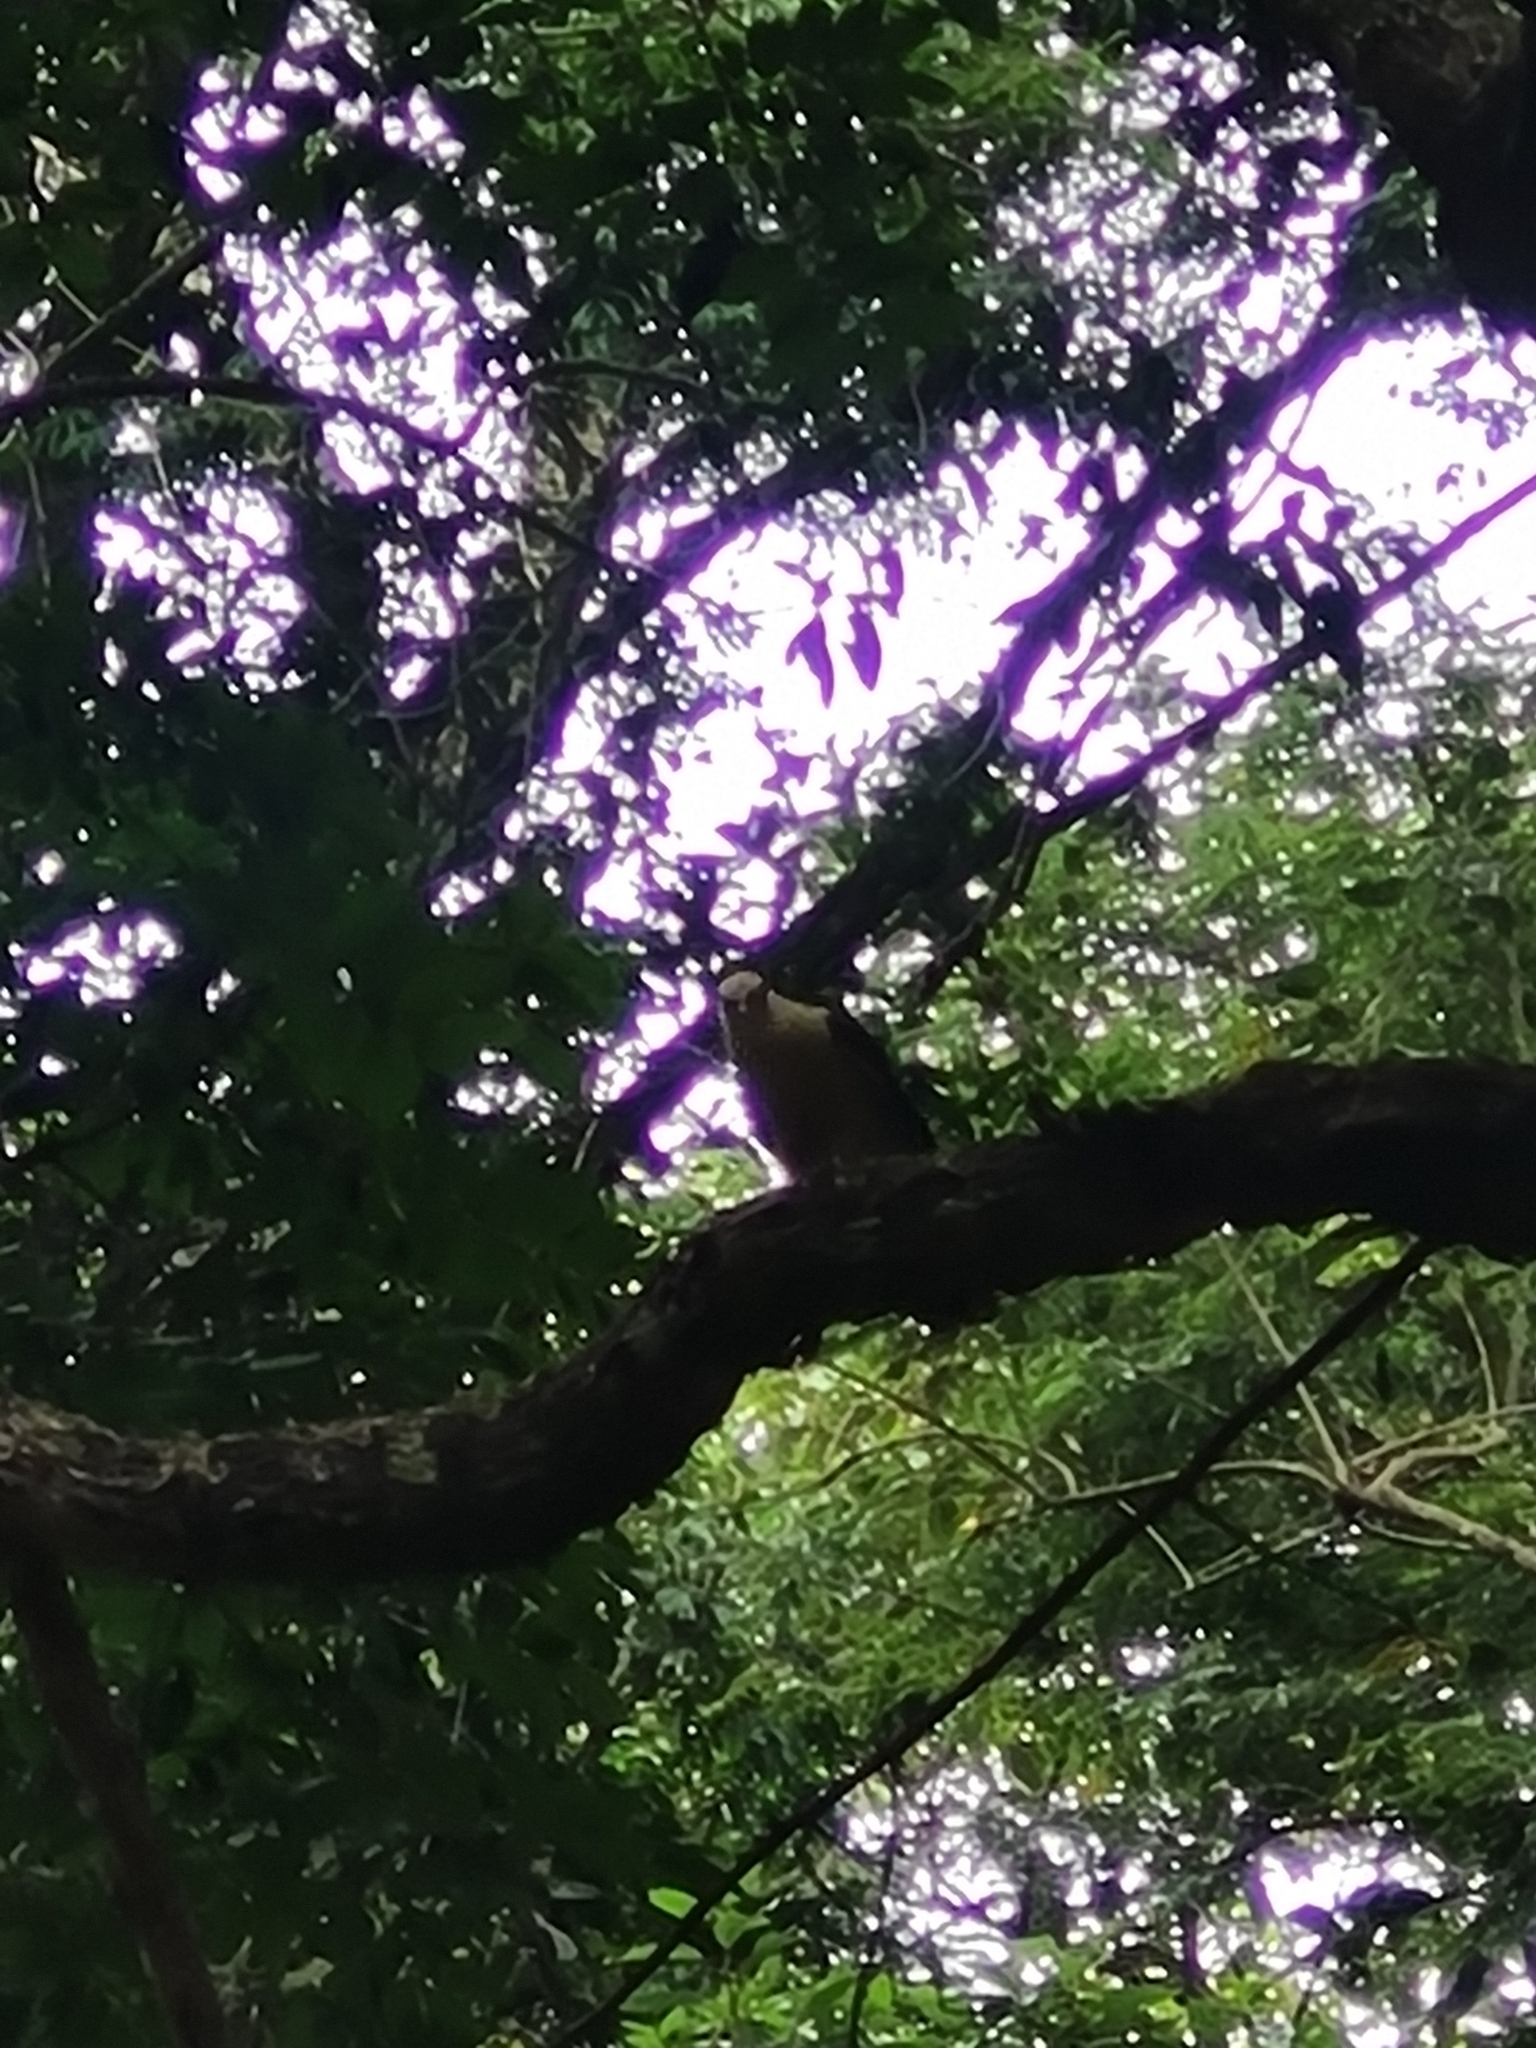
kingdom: Animalia
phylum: Chordata
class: Aves
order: Falconiformes
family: Falconidae
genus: Daptrius
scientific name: Daptrius
